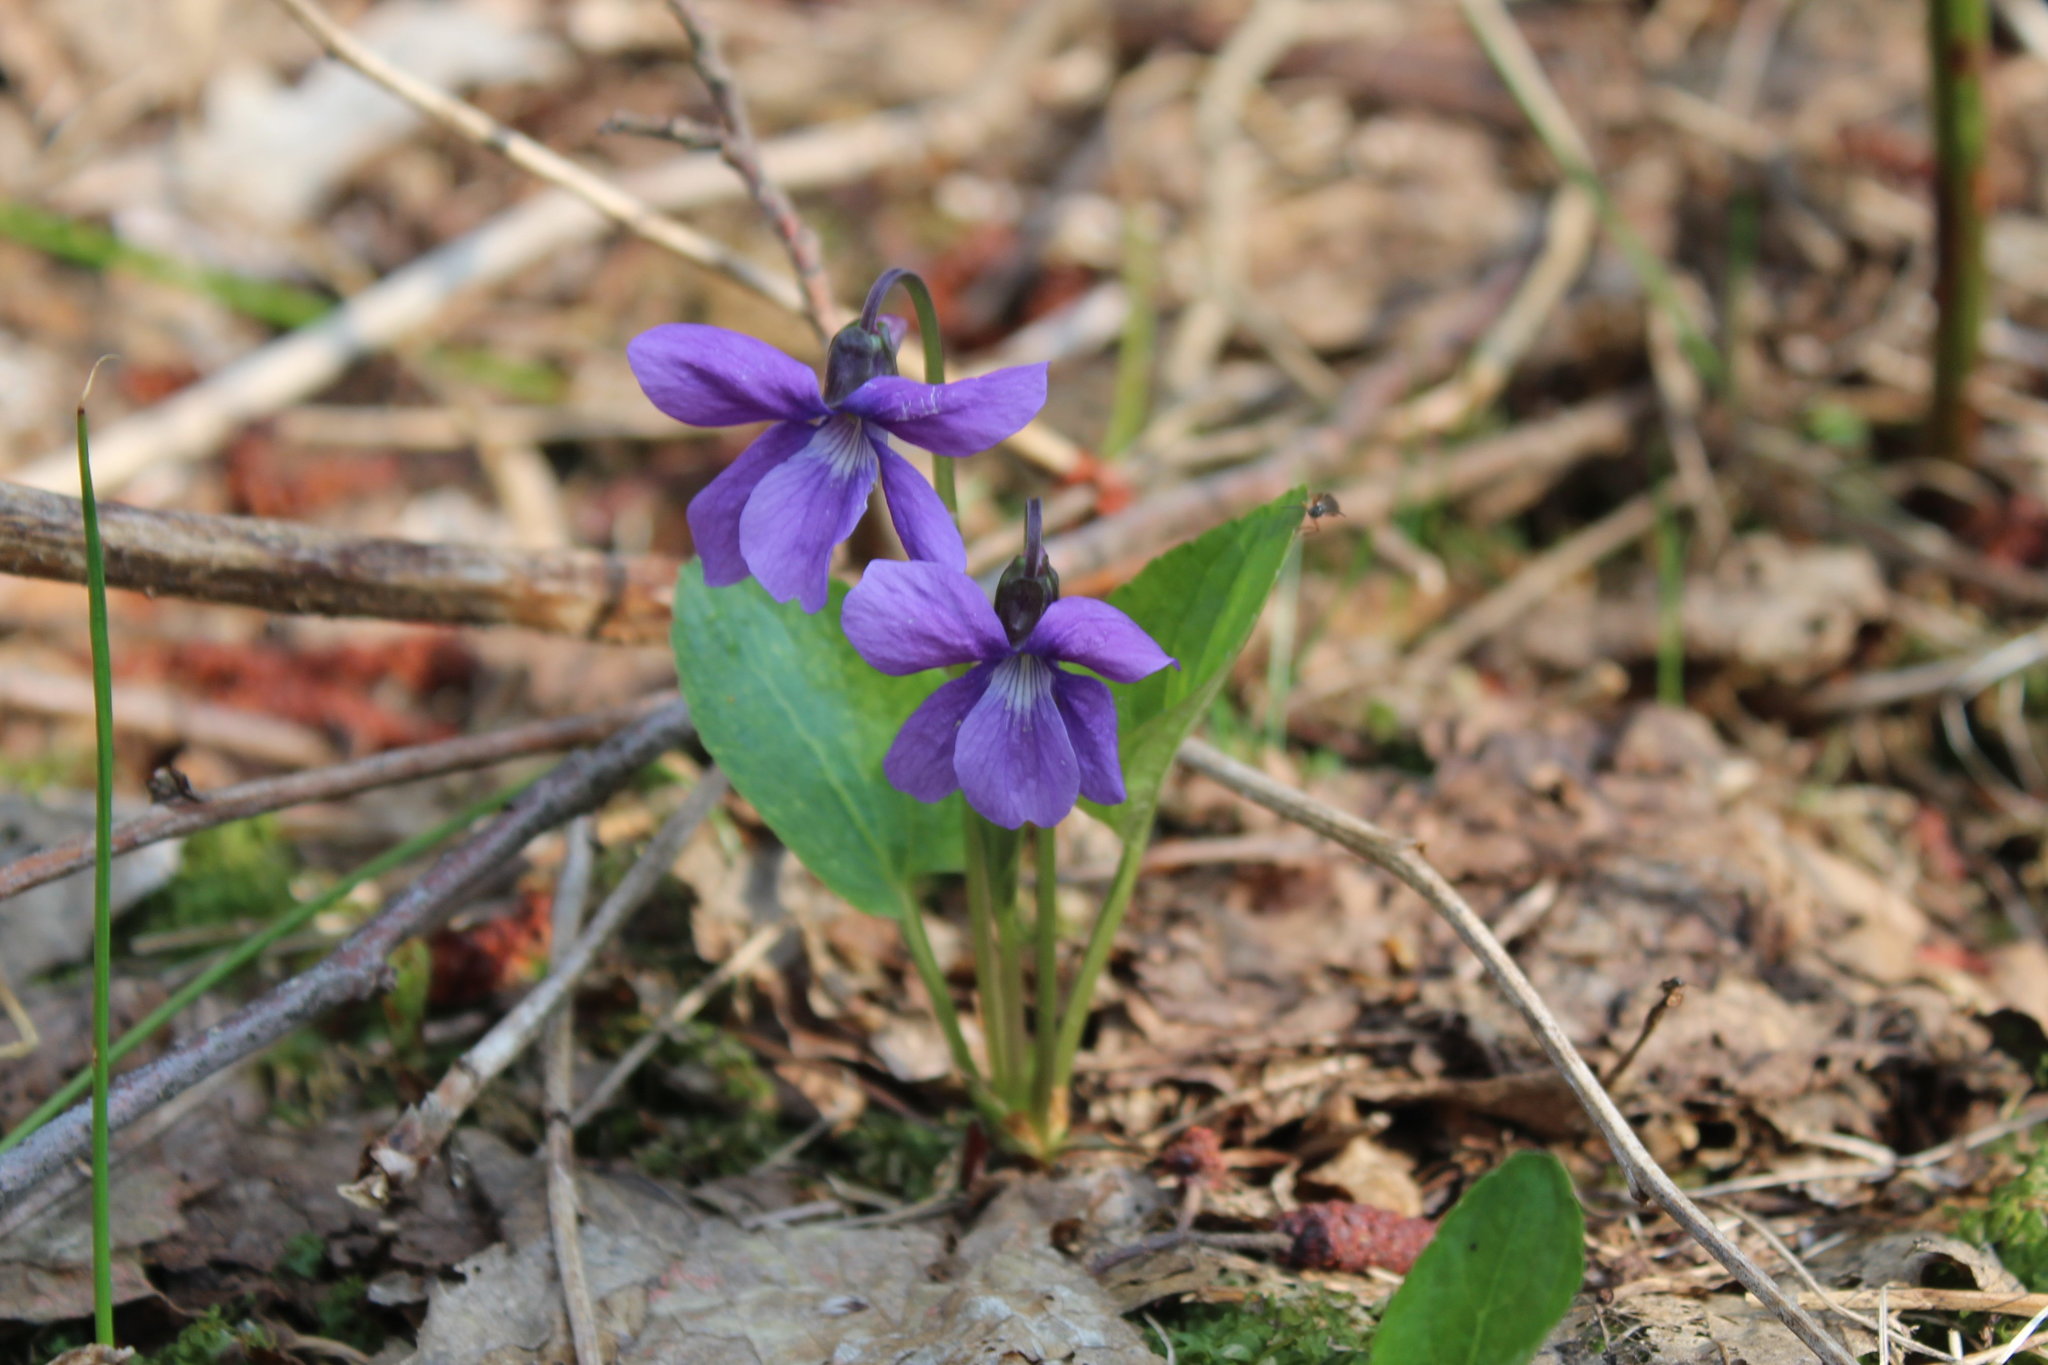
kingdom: Plantae
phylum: Tracheophyta
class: Magnoliopsida
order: Malpighiales
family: Violaceae
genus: Viola
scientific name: Viola uliginosa
